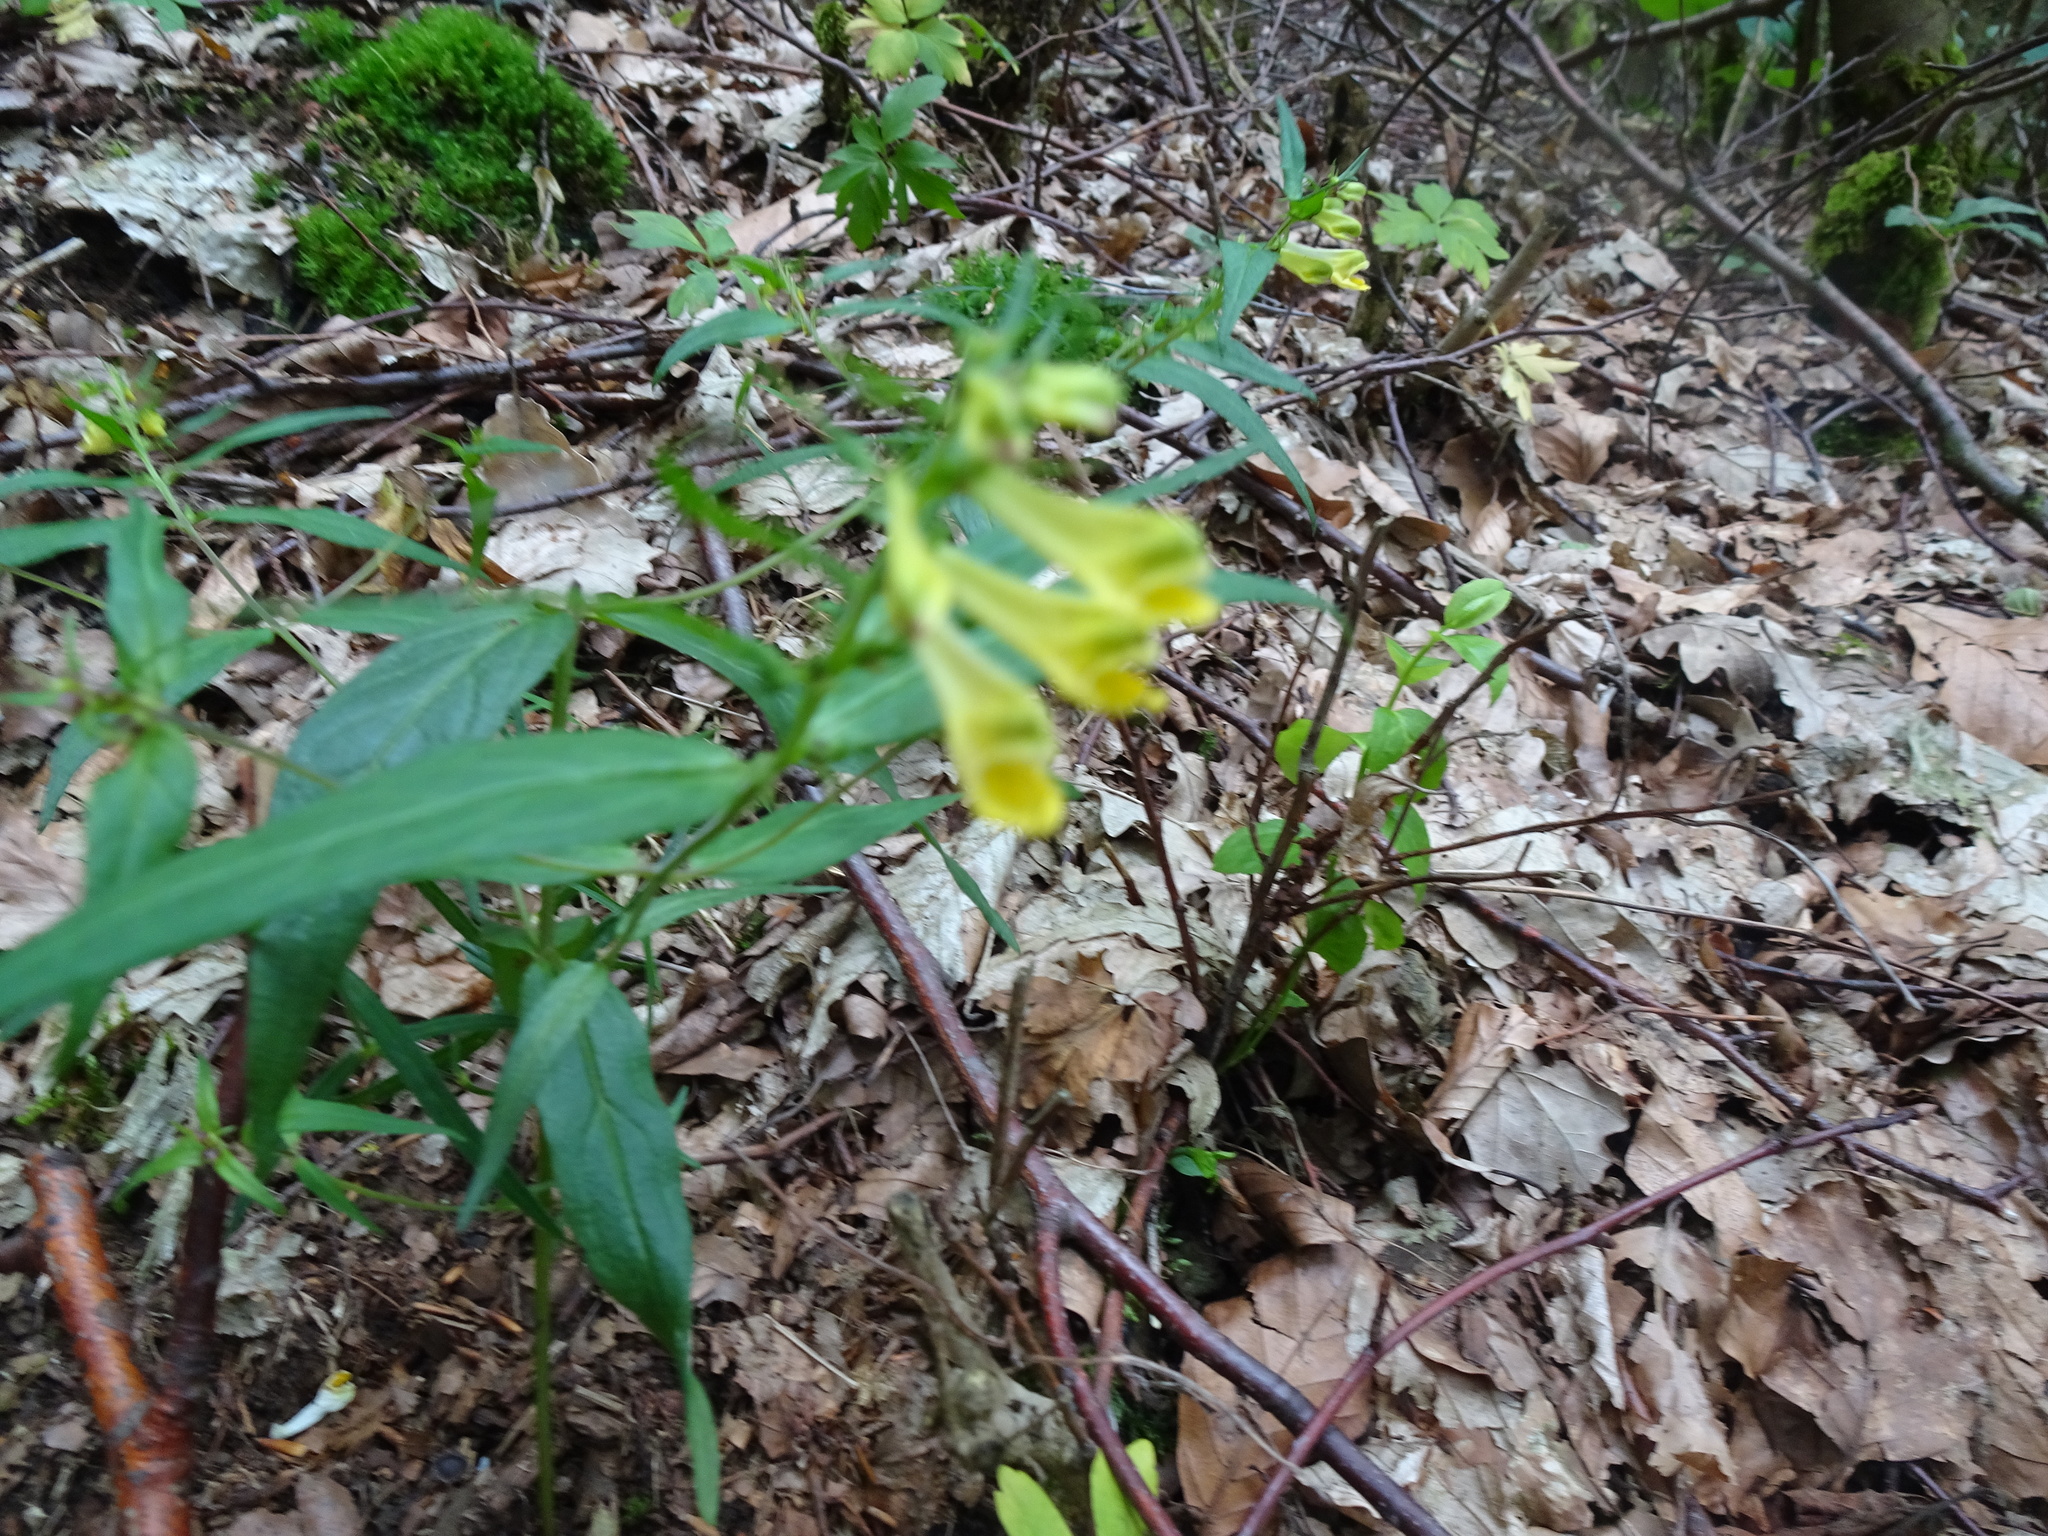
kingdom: Plantae
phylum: Tracheophyta
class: Magnoliopsida
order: Lamiales
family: Orobanchaceae
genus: Melampyrum
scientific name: Melampyrum pratense
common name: Common cow-wheat
